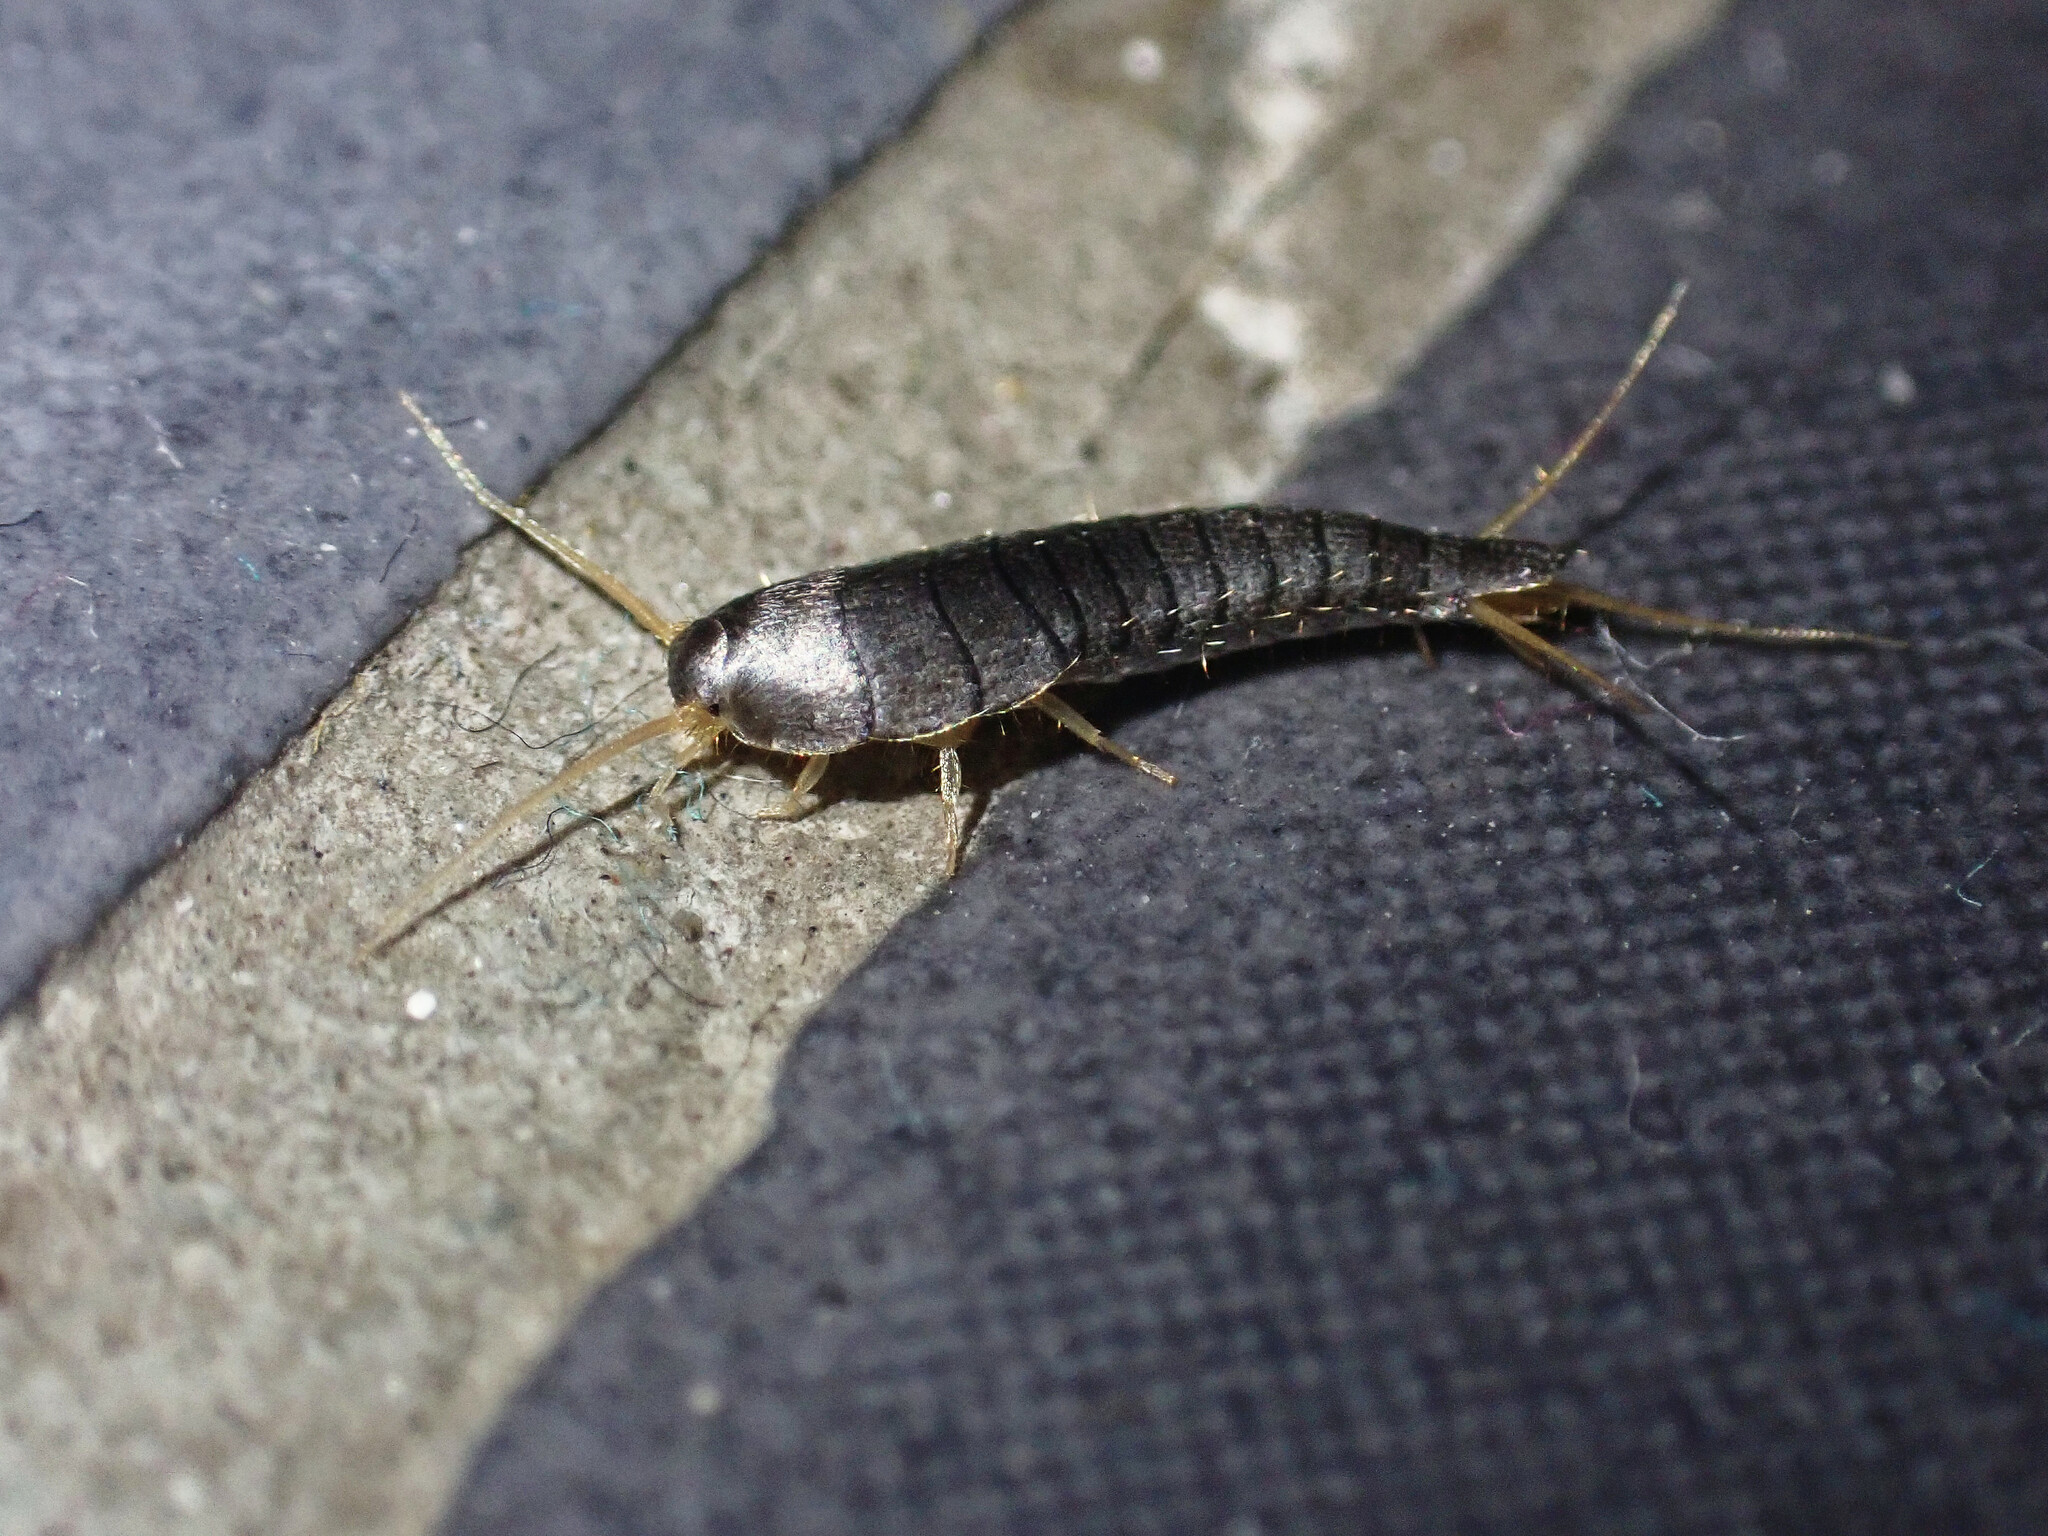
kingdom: Animalia
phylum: Arthropoda
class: Insecta
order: Zygentoma
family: Lepismatidae
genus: Lepisma
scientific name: Lepisma saccharinum
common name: Silverfish
